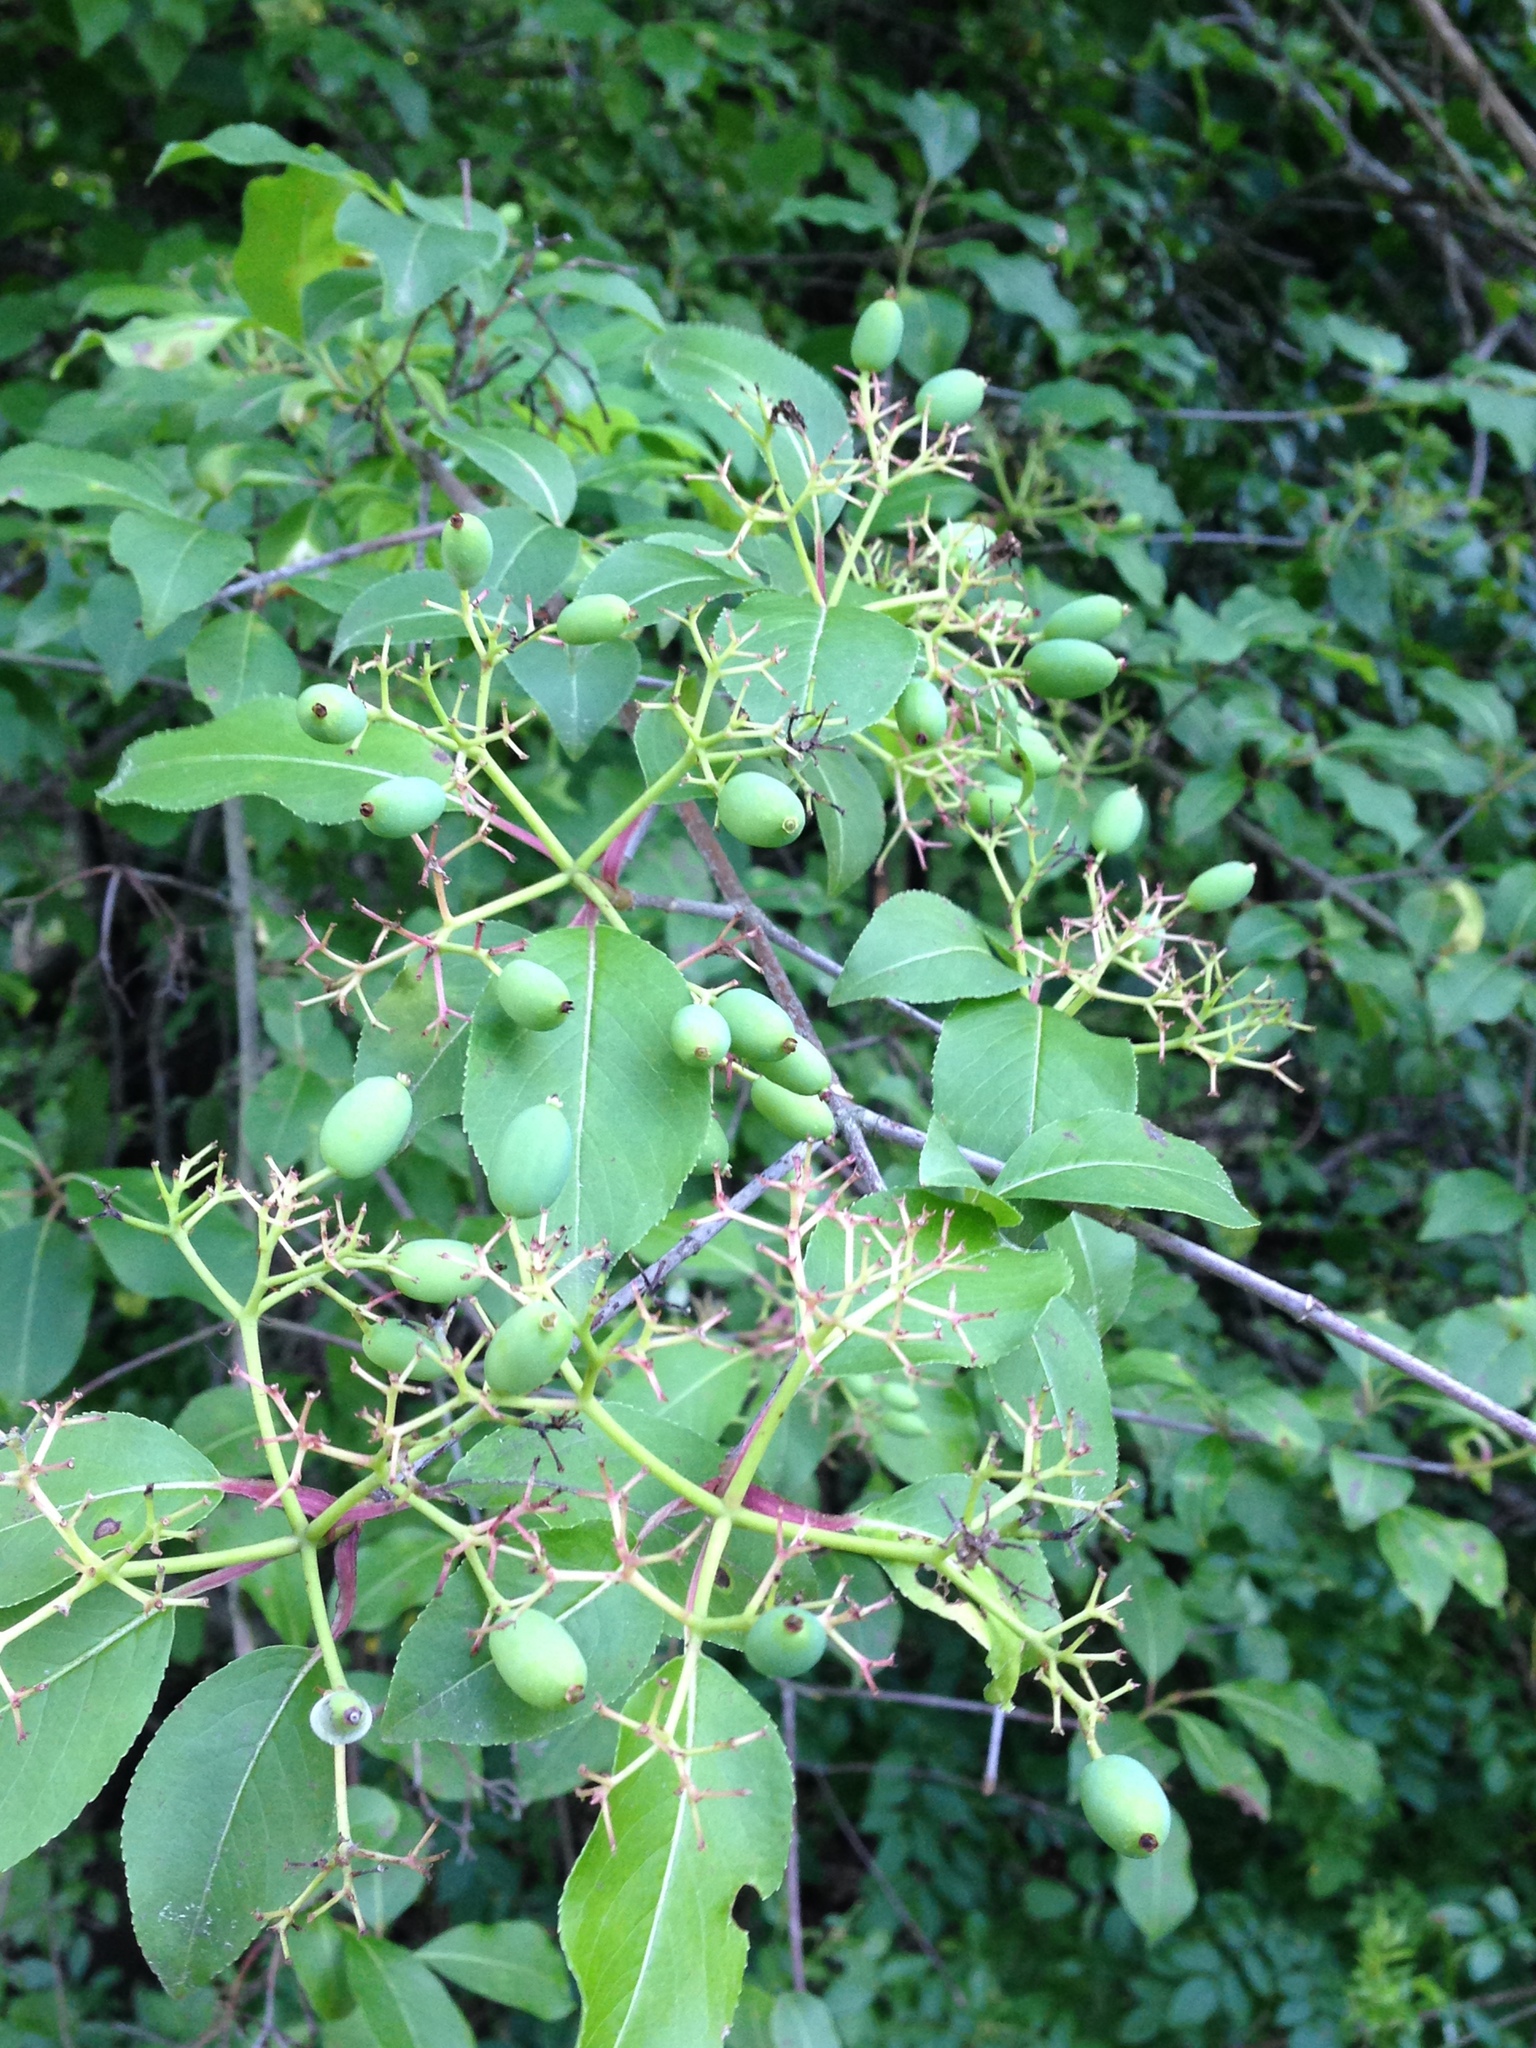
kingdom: Plantae
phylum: Tracheophyta
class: Magnoliopsida
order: Dipsacales
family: Viburnaceae
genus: Viburnum
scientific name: Viburnum prunifolium
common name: Black haw
